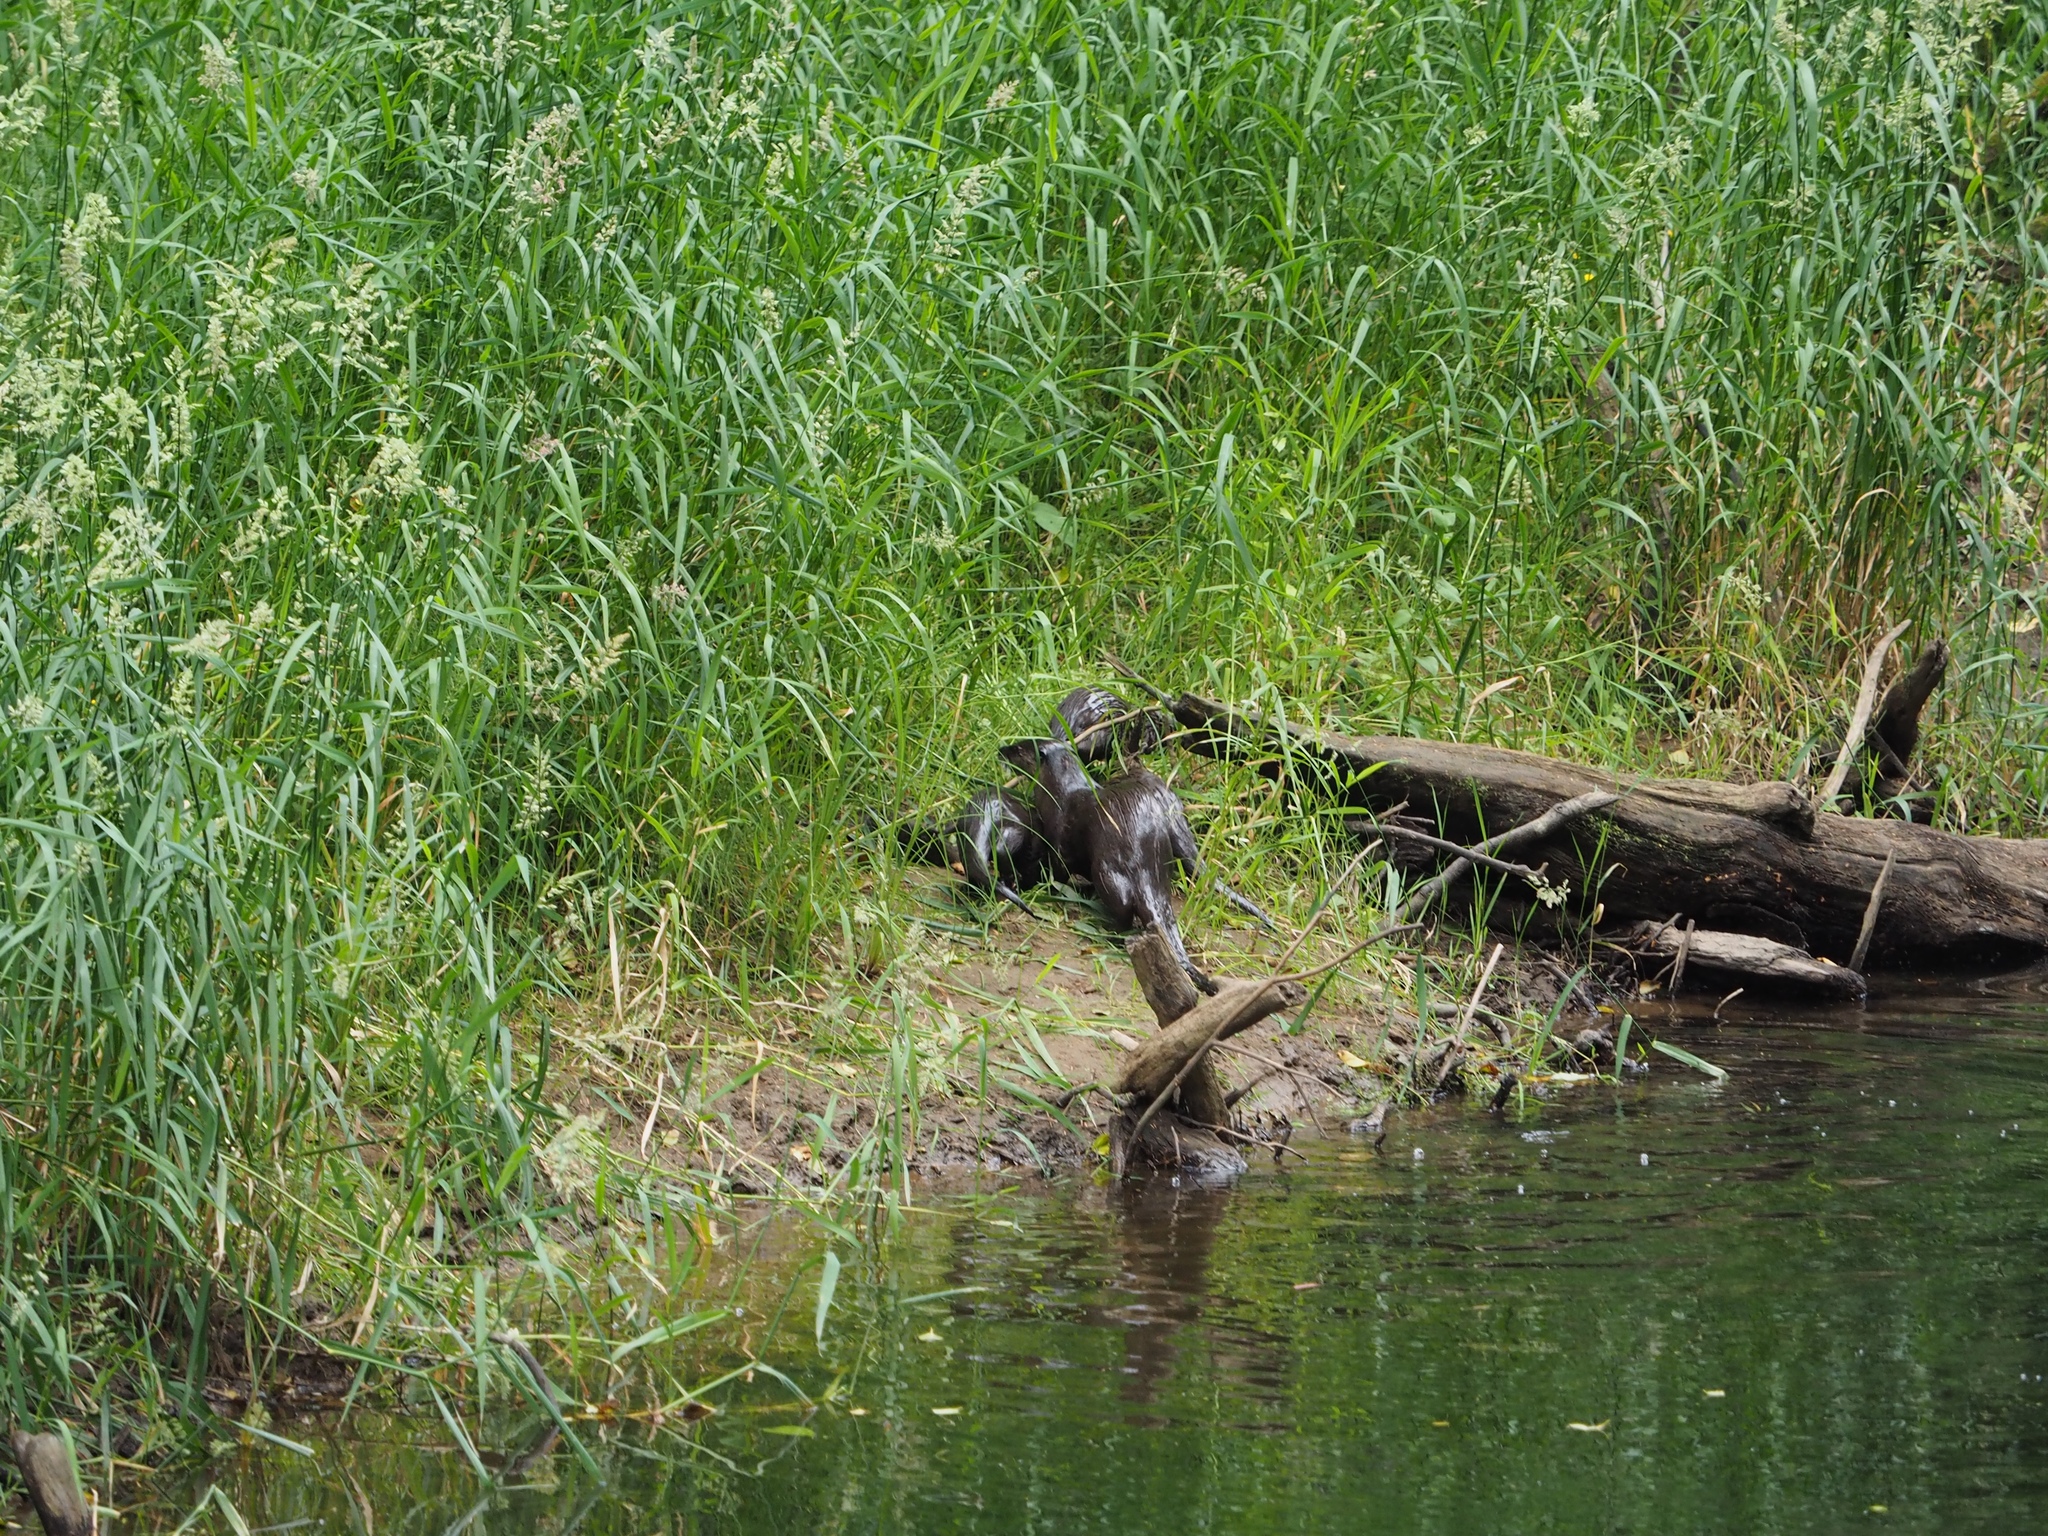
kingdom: Animalia
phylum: Chordata
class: Mammalia
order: Carnivora
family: Mustelidae
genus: Lontra
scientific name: Lontra canadensis
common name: North american river otter
